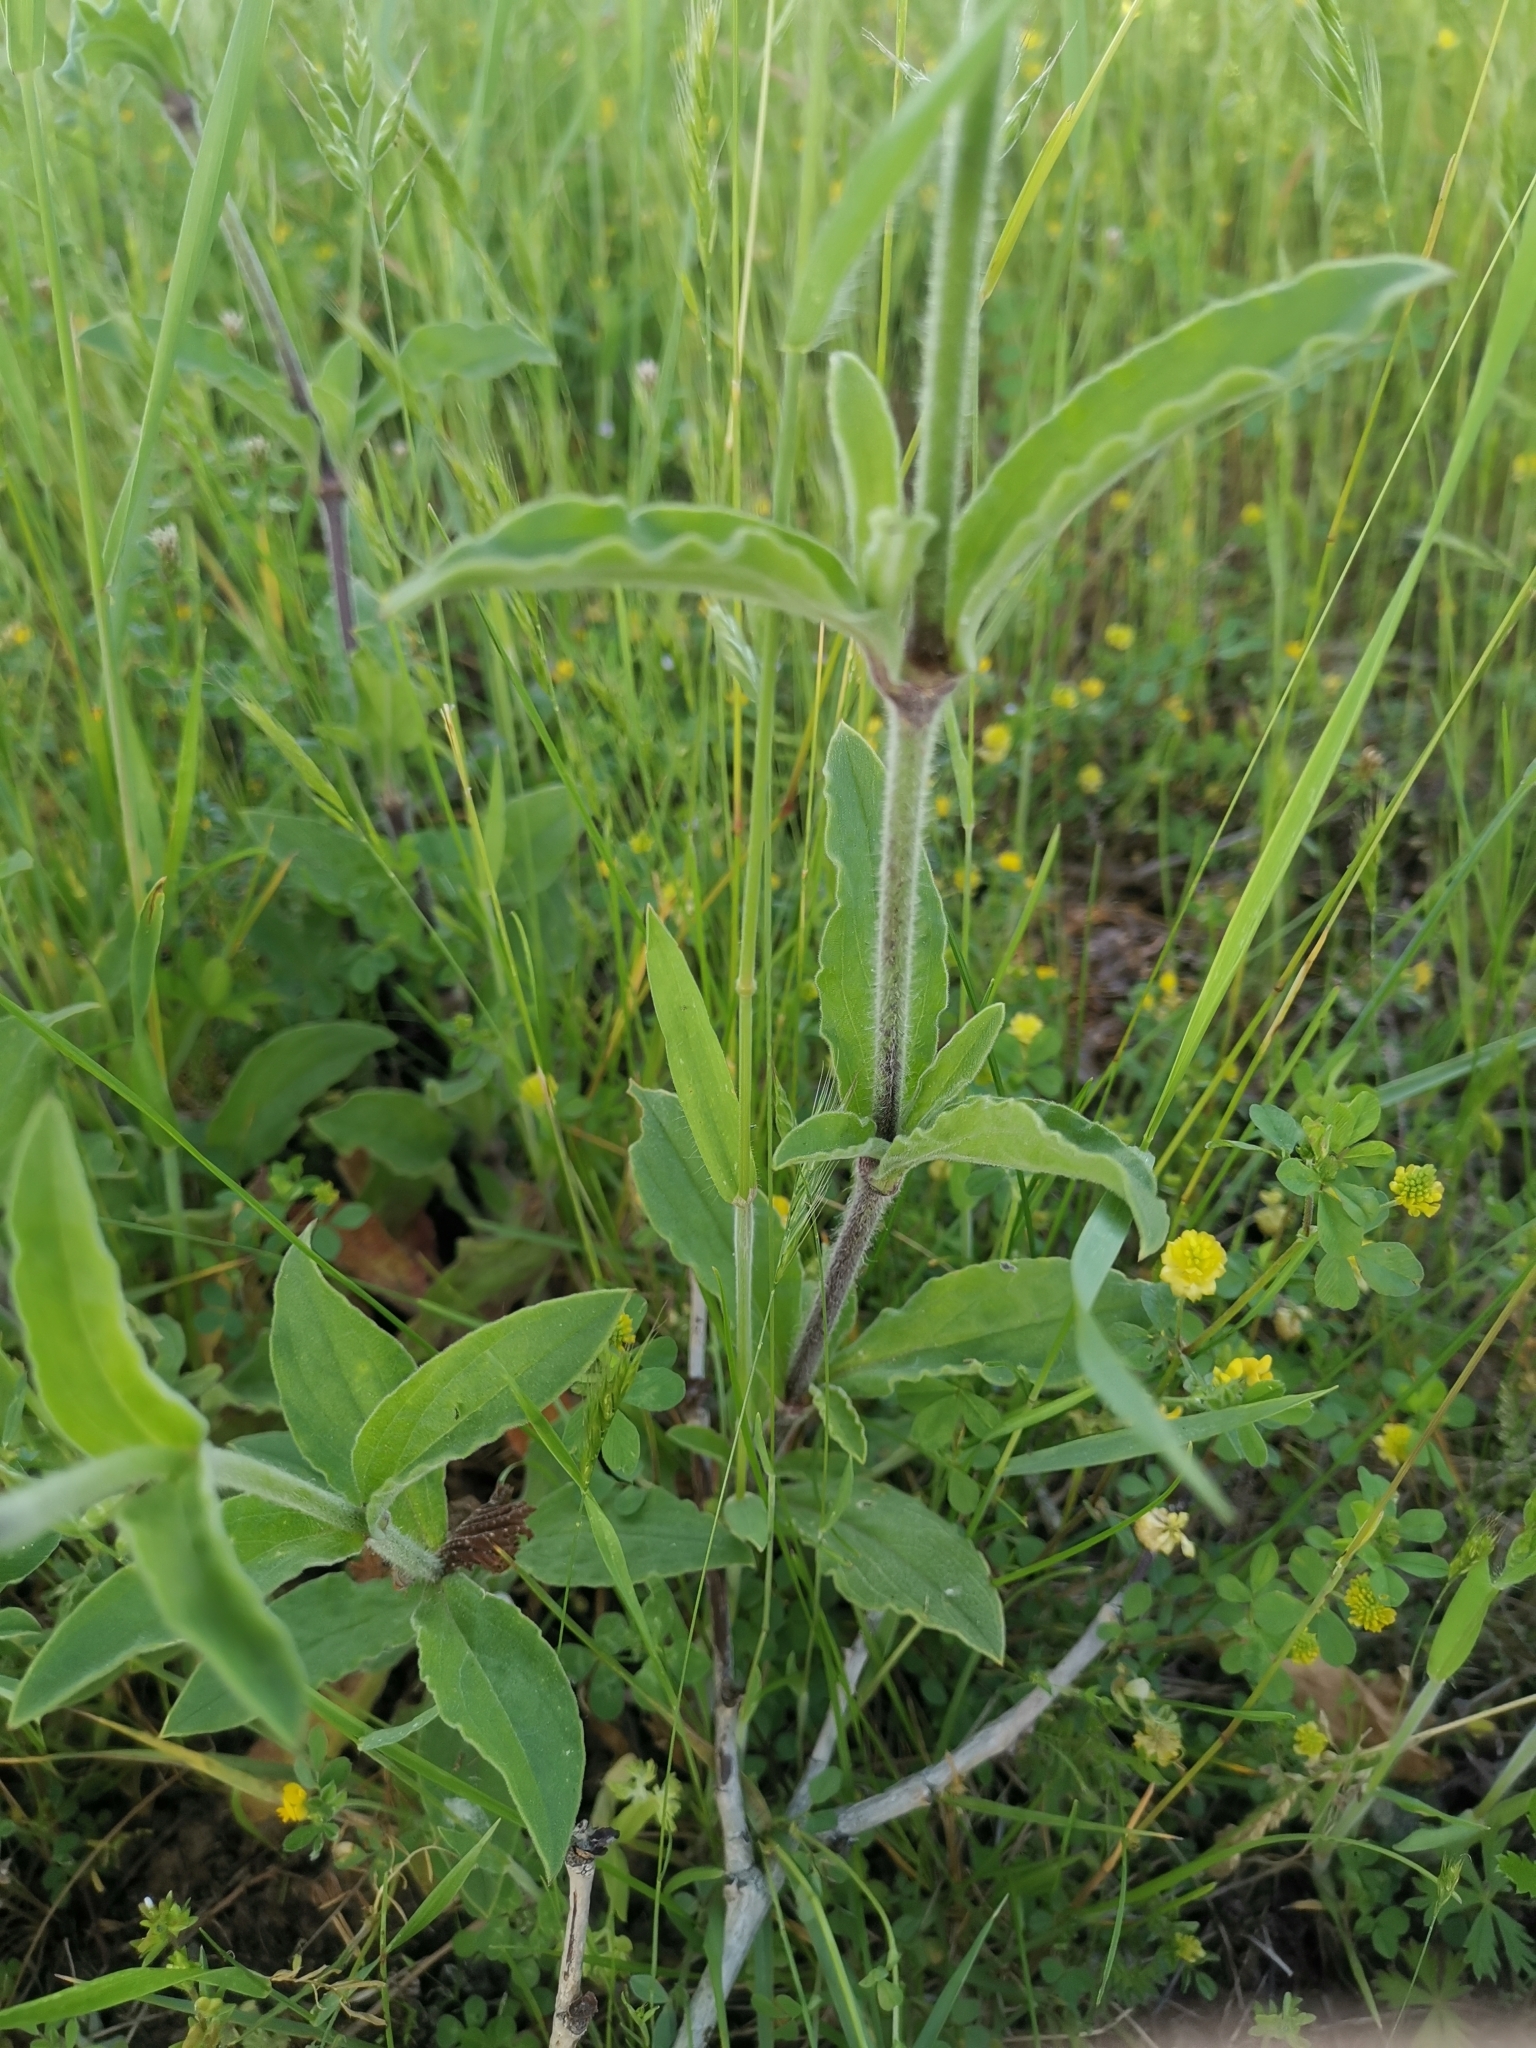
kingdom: Plantae
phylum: Tracheophyta
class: Magnoliopsida
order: Caryophyllales
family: Caryophyllaceae
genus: Silene
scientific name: Silene latifolia
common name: White campion
